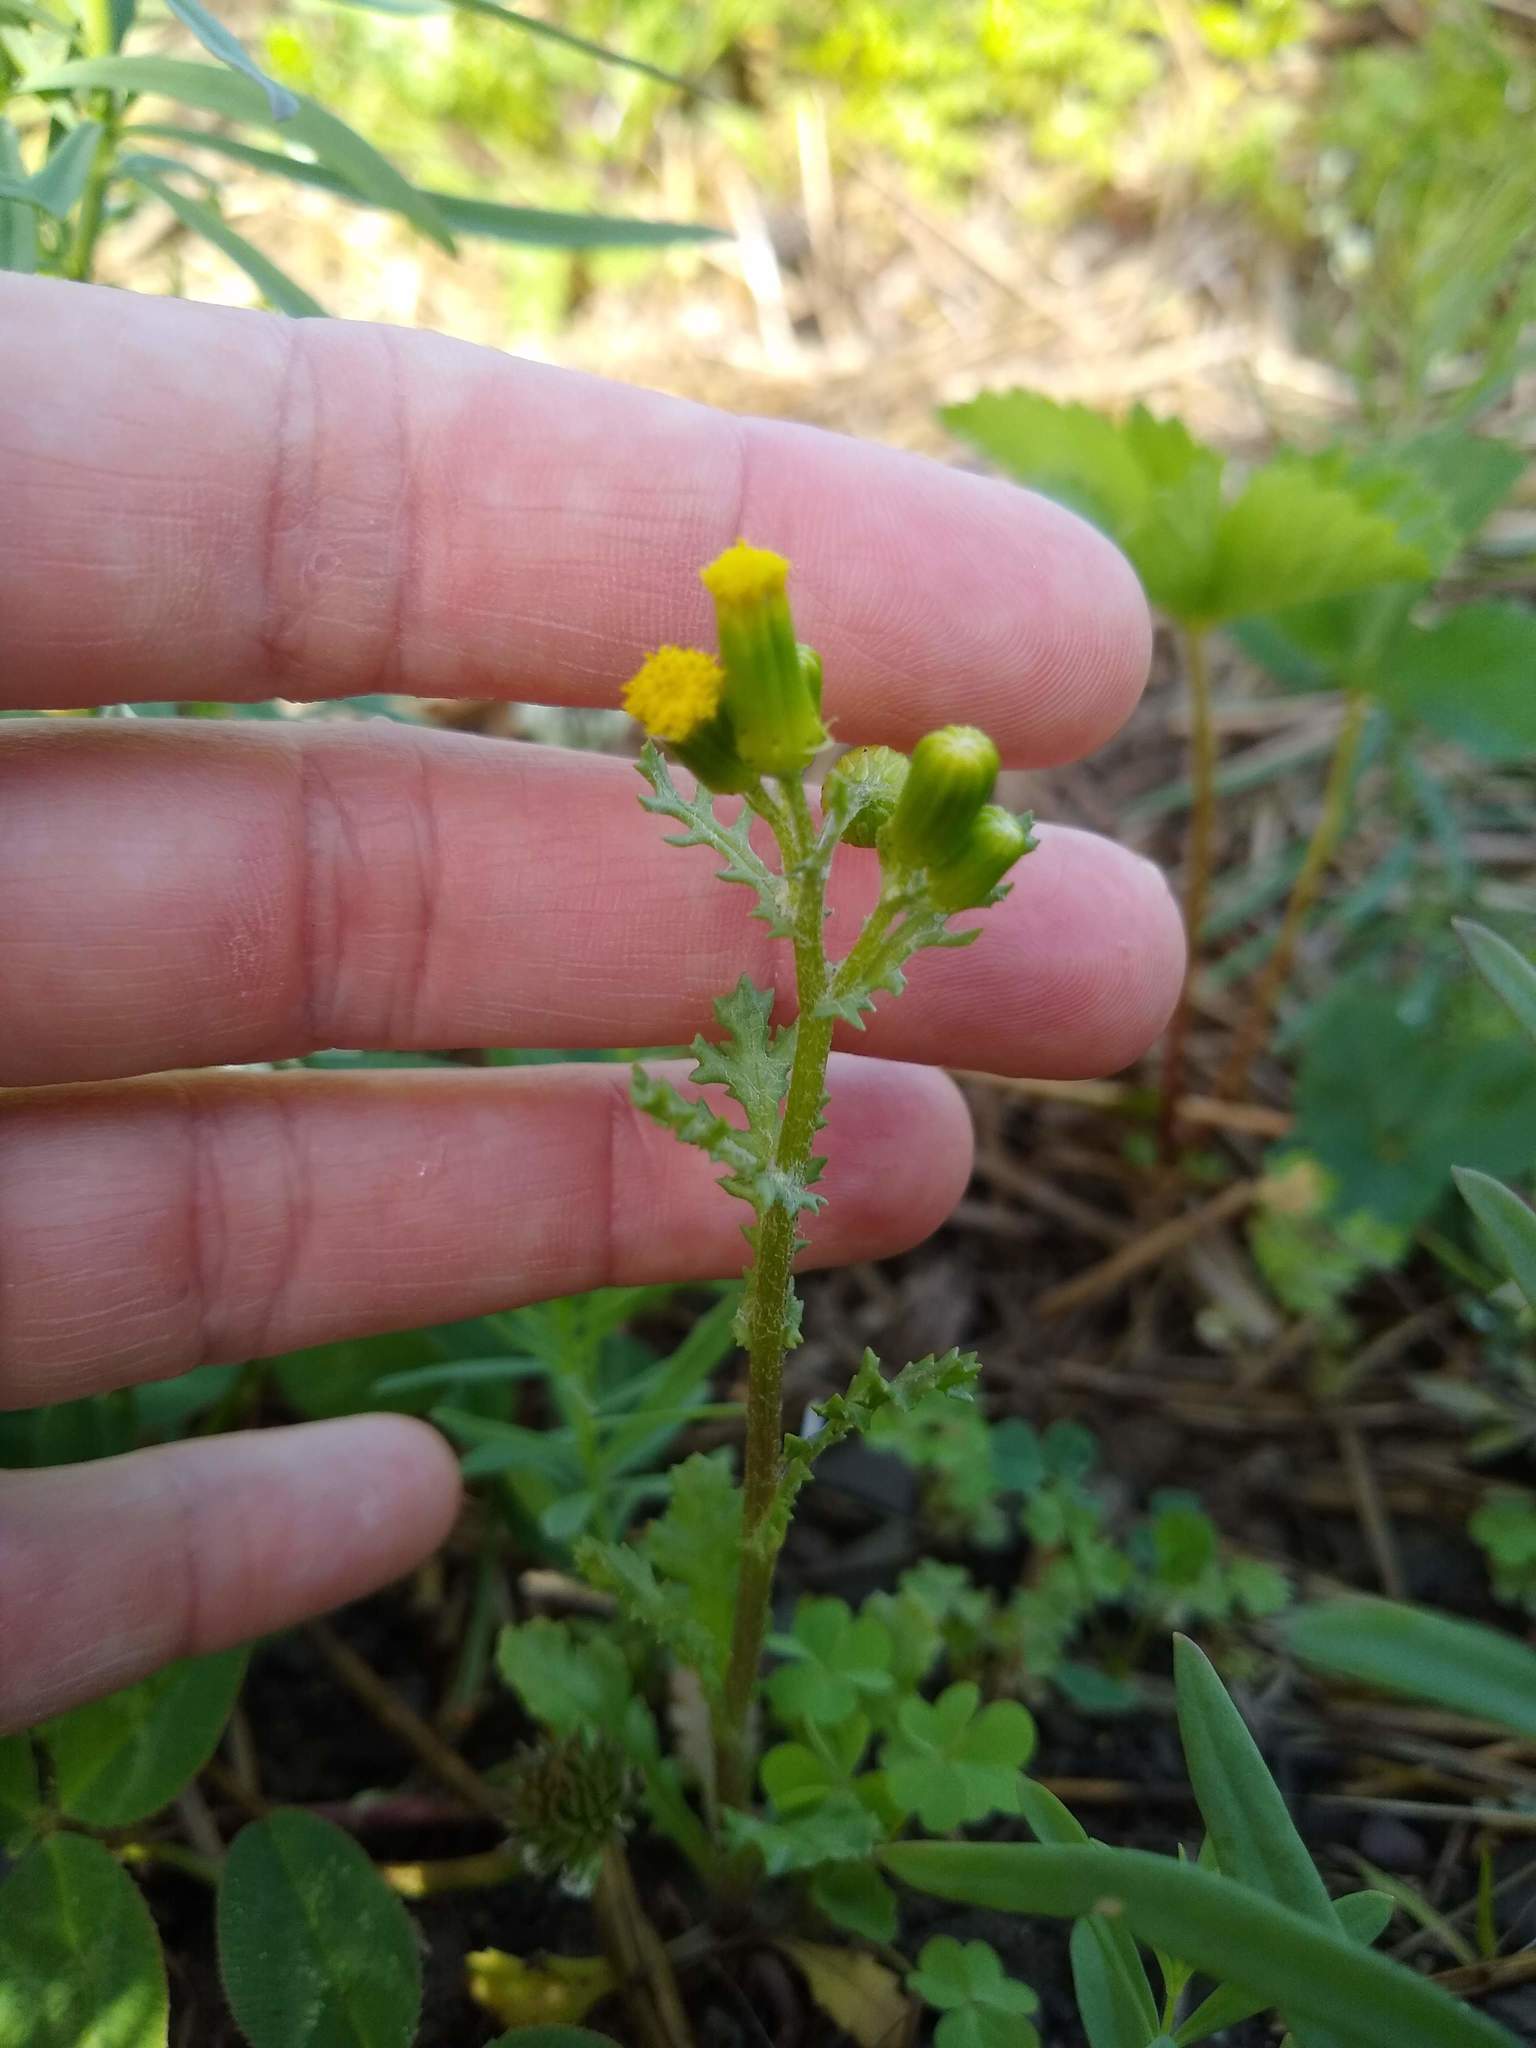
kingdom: Plantae
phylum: Tracheophyta
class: Magnoliopsida
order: Asterales
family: Asteraceae
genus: Senecio
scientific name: Senecio vulgaris
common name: Old-man-in-the-spring
